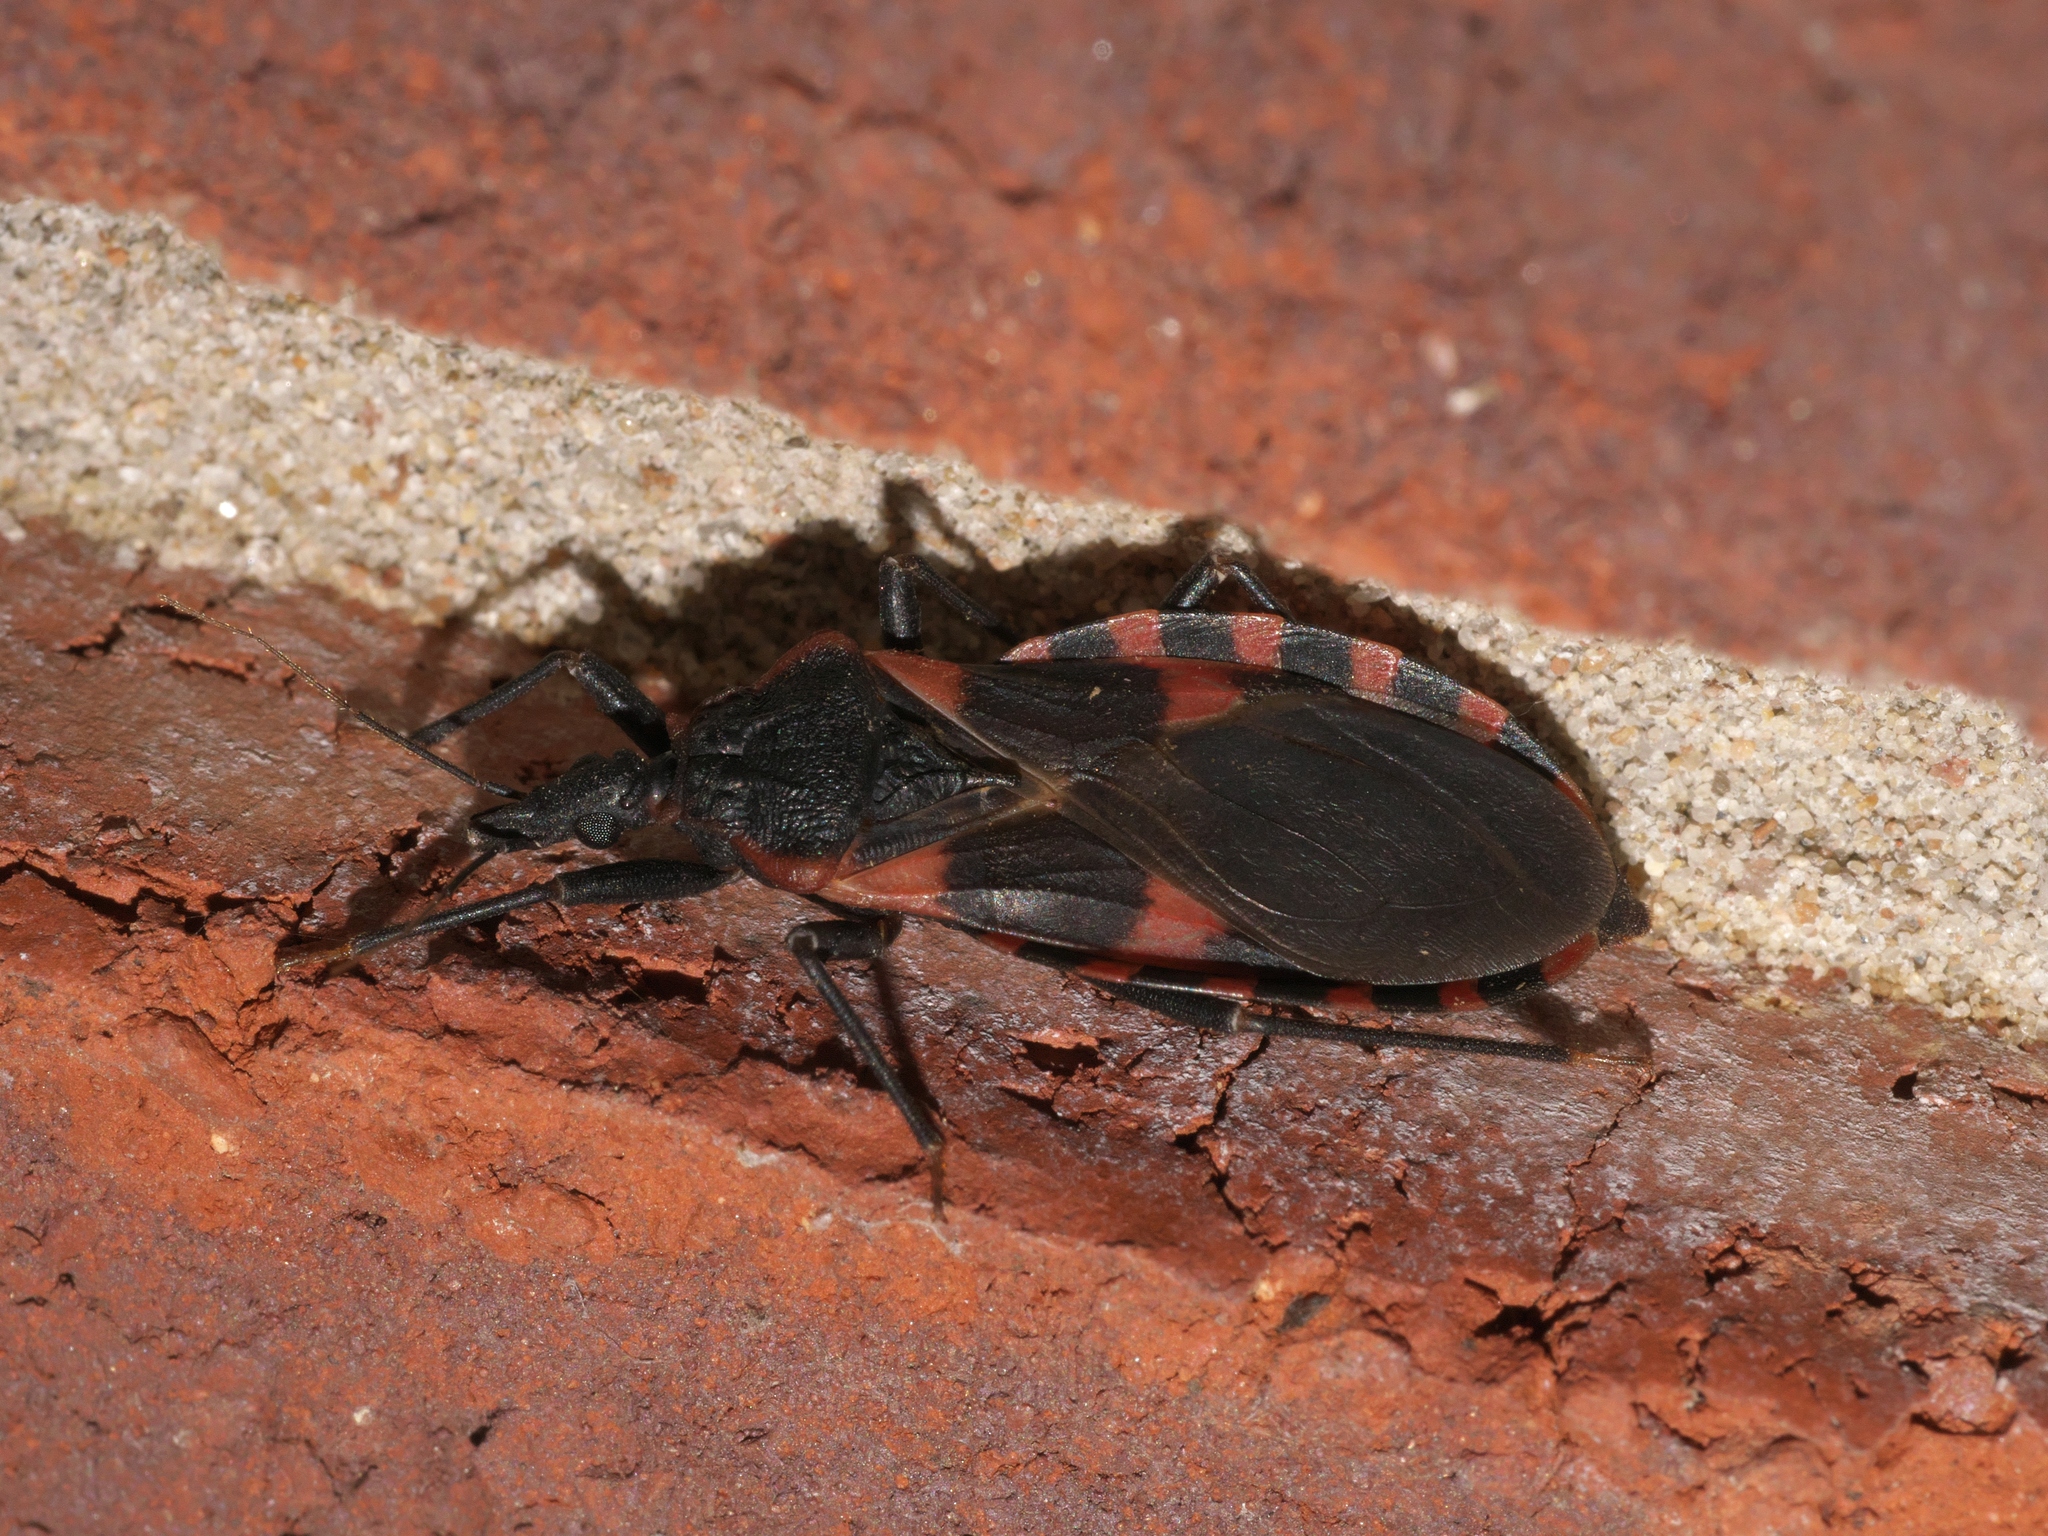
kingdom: Animalia
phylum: Arthropoda
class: Insecta
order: Hemiptera
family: Reduviidae
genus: Triatoma
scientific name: Triatoma sanguisuga
